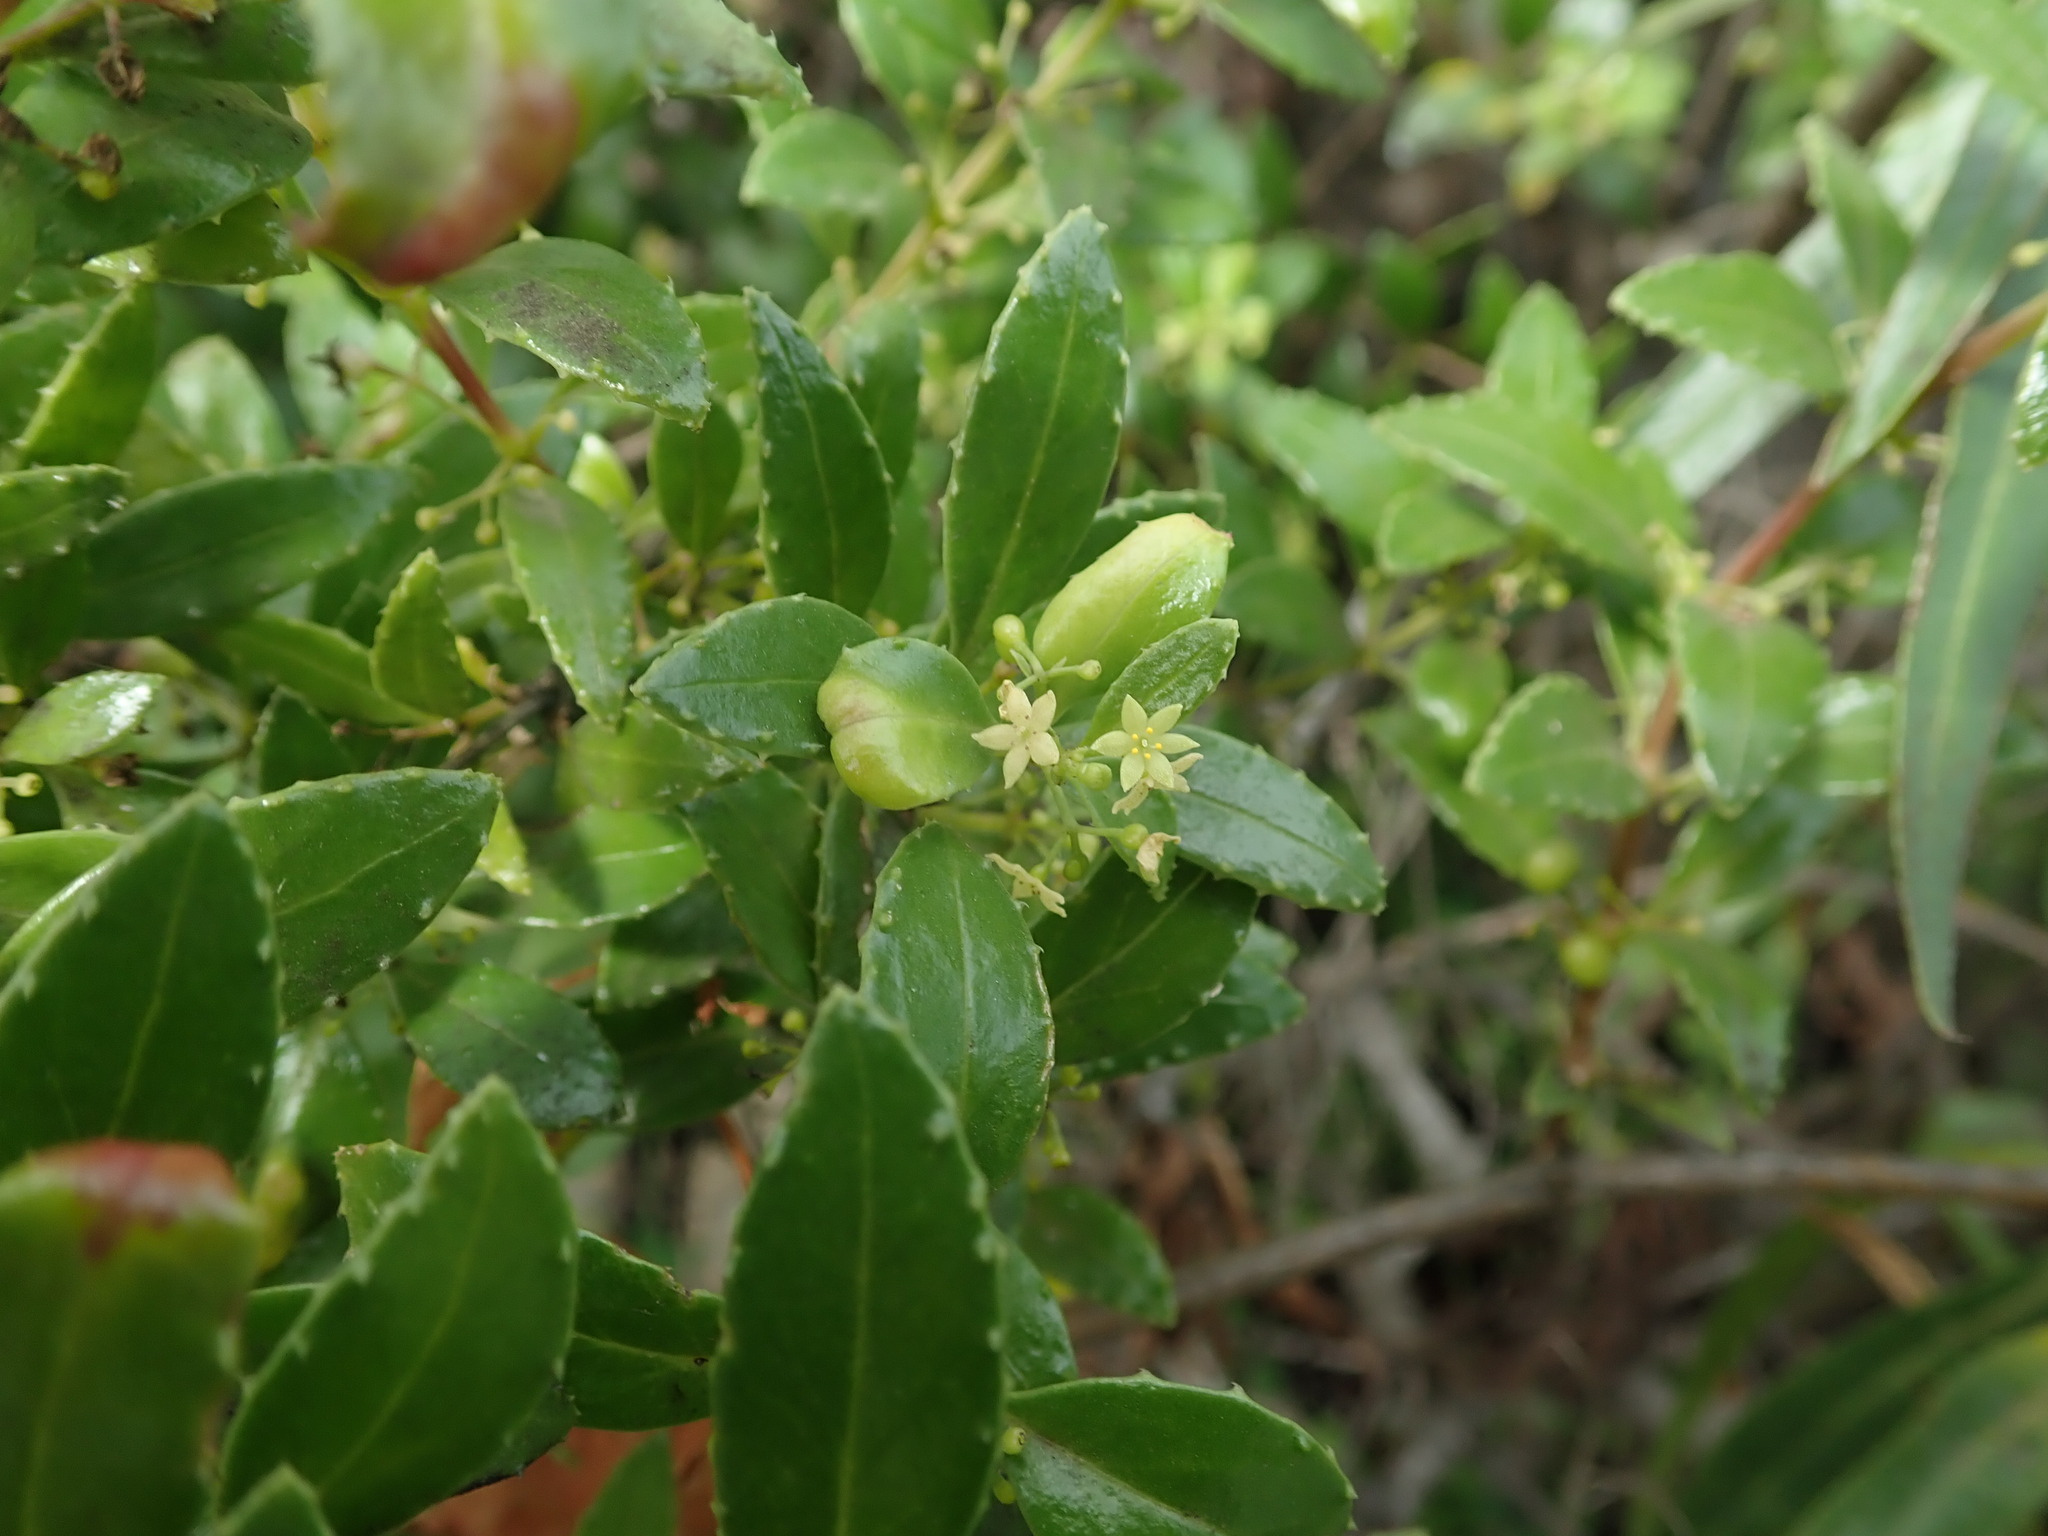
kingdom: Plantae
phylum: Tracheophyta
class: Magnoliopsida
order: Gentianales
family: Rubiaceae
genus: Rubia
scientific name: Rubia fruticosa
